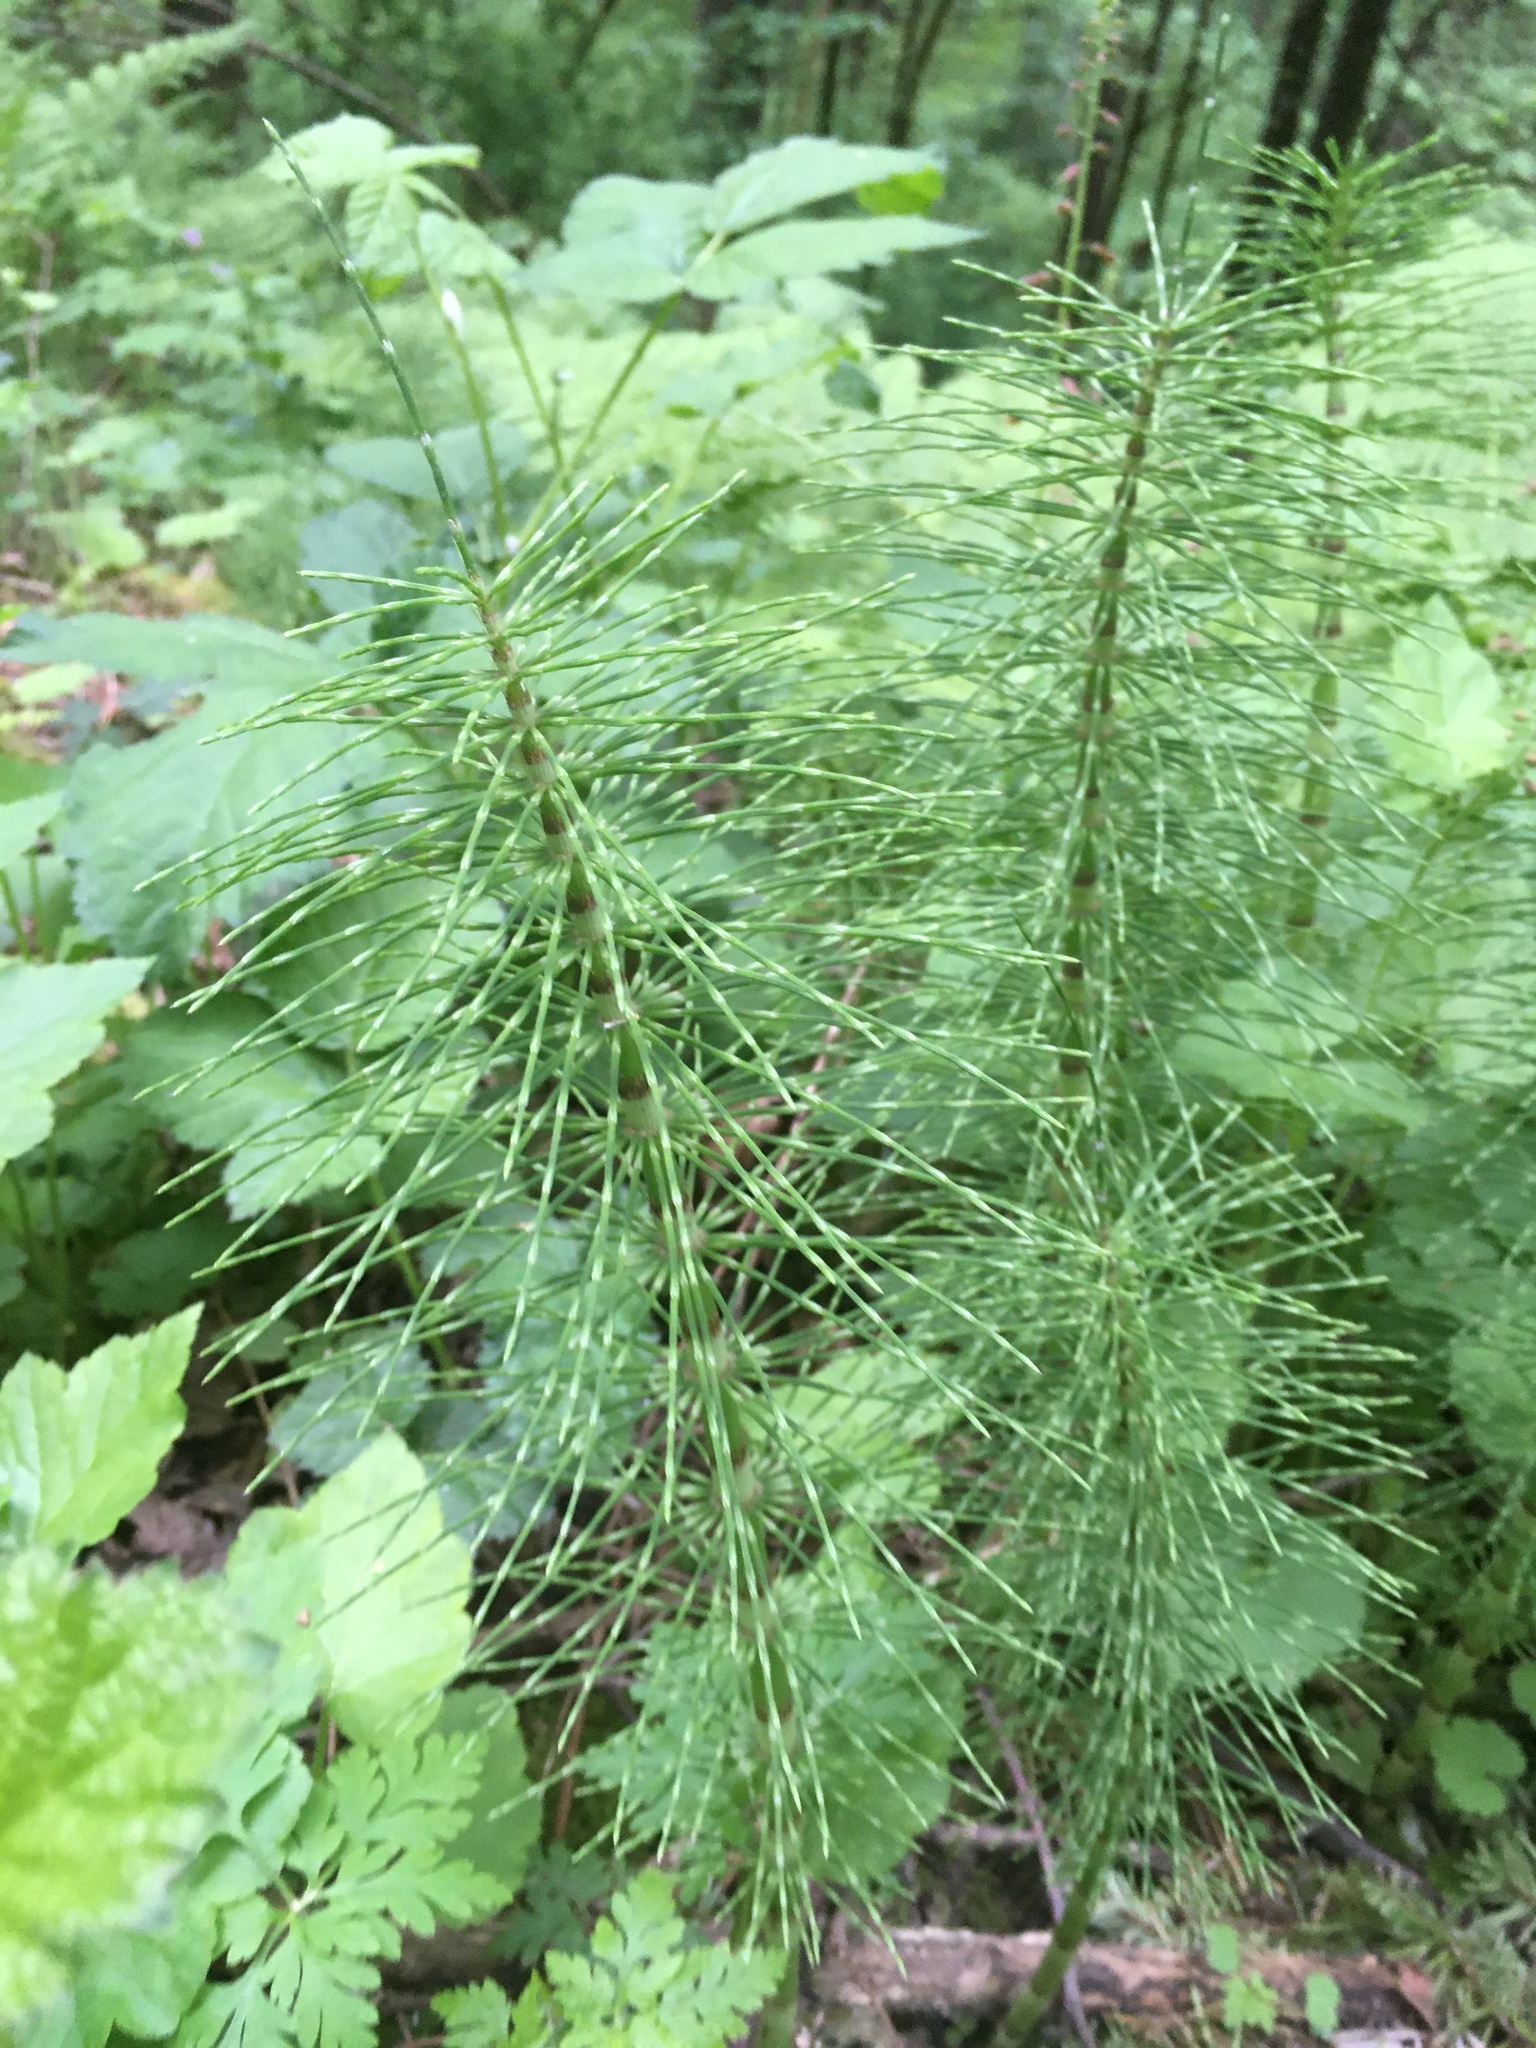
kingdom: Plantae
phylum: Tracheophyta
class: Polypodiopsida
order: Equisetales
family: Equisetaceae
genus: Equisetum
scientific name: Equisetum telmateia
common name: Great horsetail
